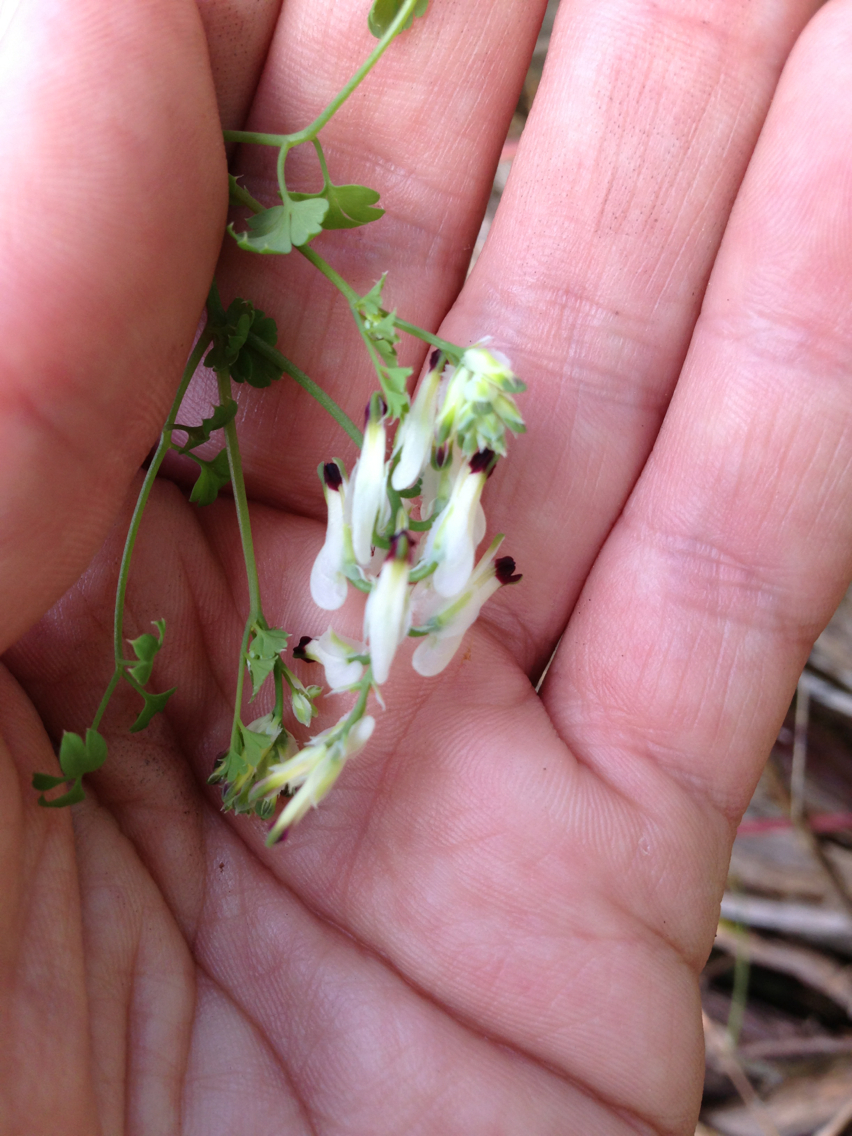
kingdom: Plantae
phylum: Tracheophyta
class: Magnoliopsida
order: Ranunculales
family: Papaveraceae
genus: Fumaria
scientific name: Fumaria capreolata
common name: White ramping-fumitory
